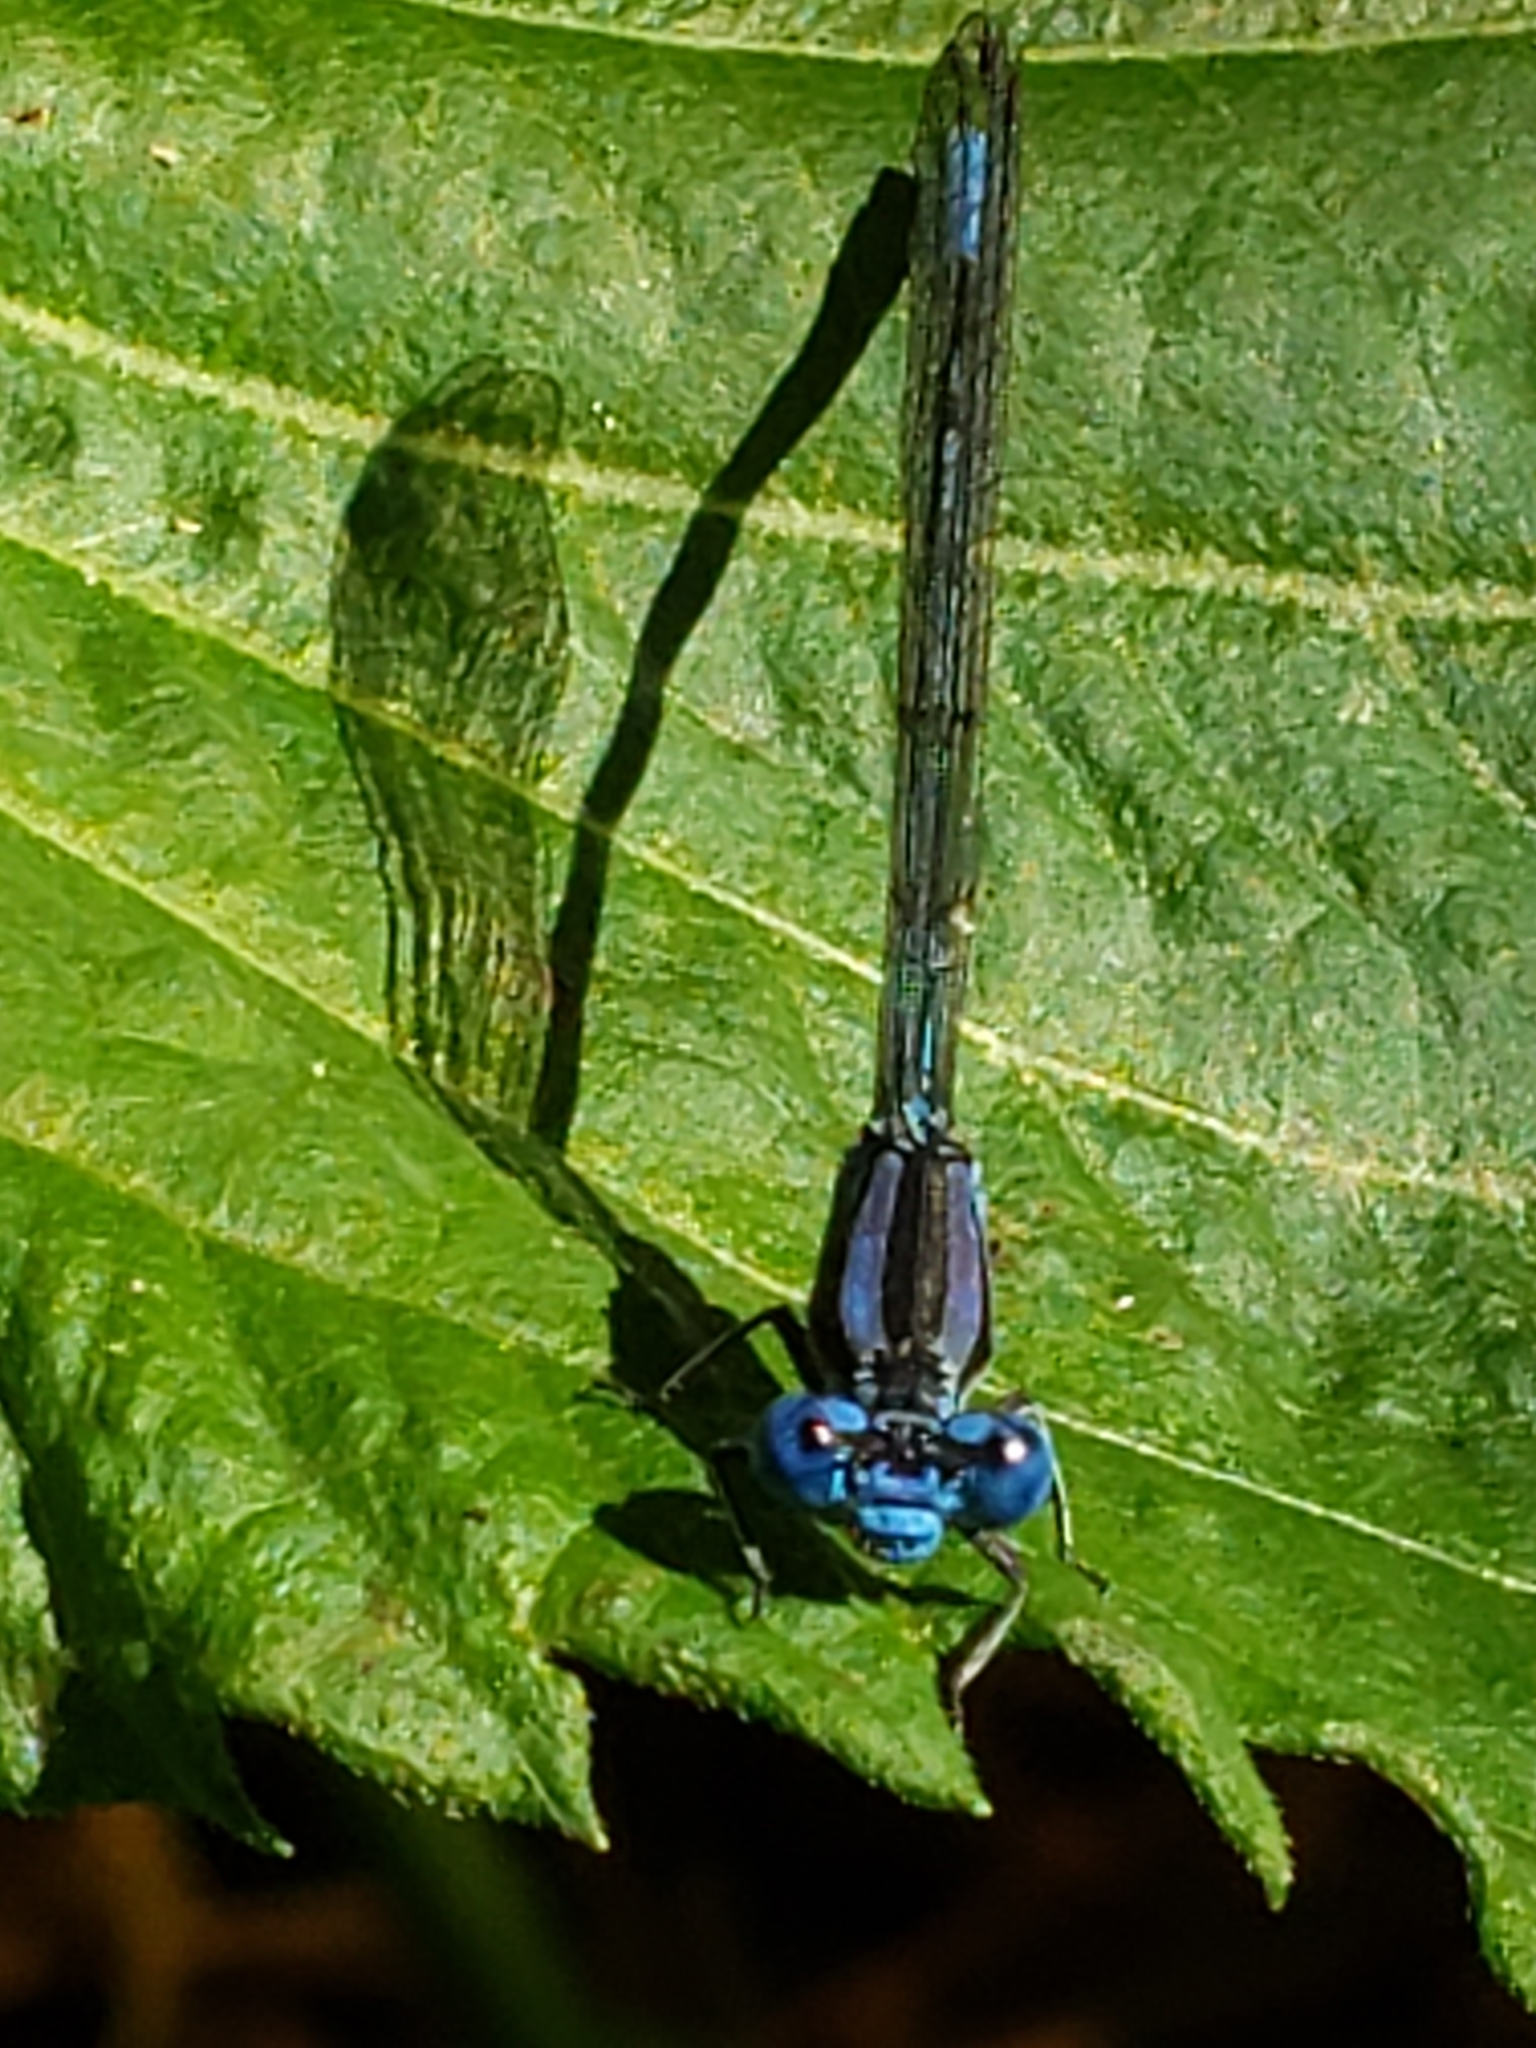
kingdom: Animalia
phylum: Arthropoda
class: Insecta
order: Odonata
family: Coenagrionidae
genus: Argia
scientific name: Argia funebris
